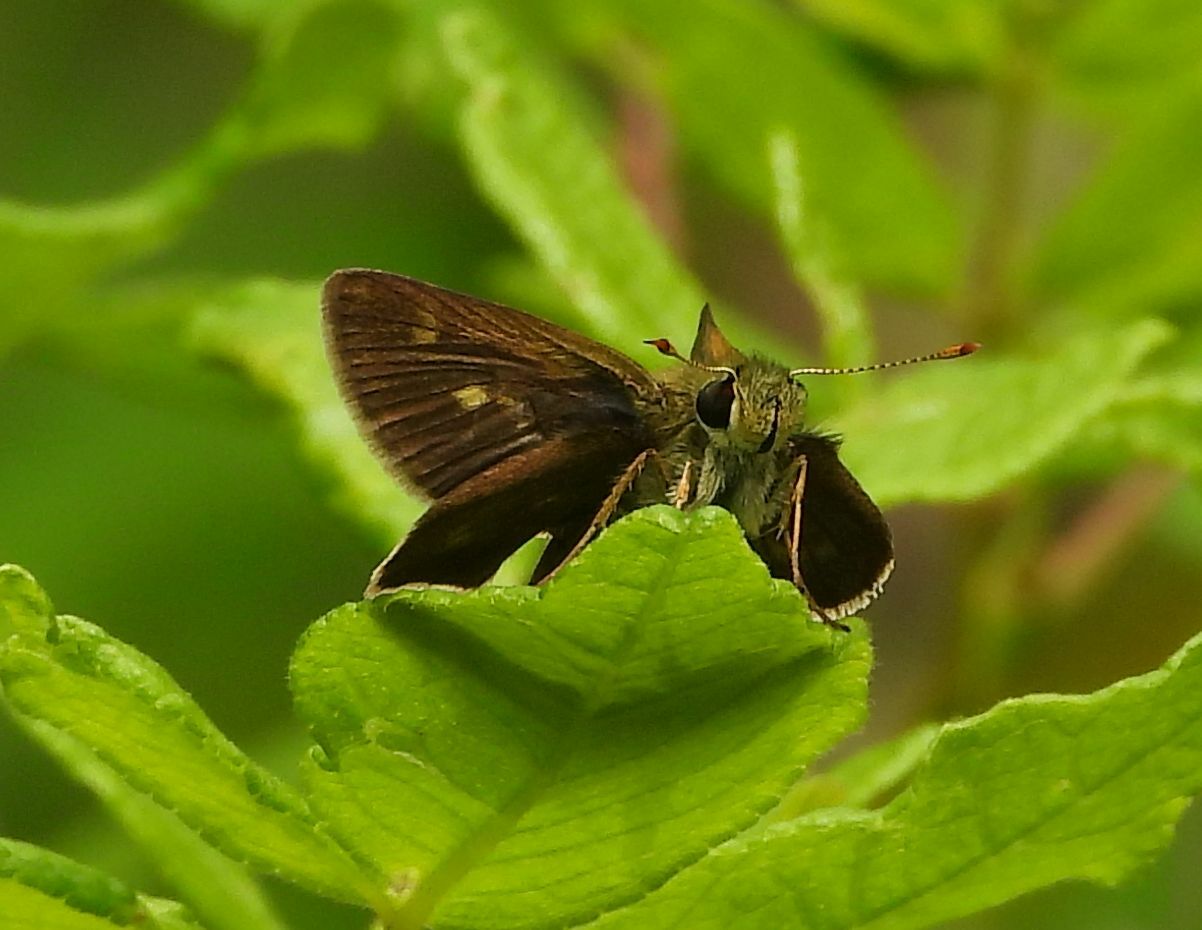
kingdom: Animalia
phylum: Arthropoda
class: Insecta
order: Lepidoptera
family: Hesperiidae
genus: Polites
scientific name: Polites egeremet
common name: Northern broken-dash
